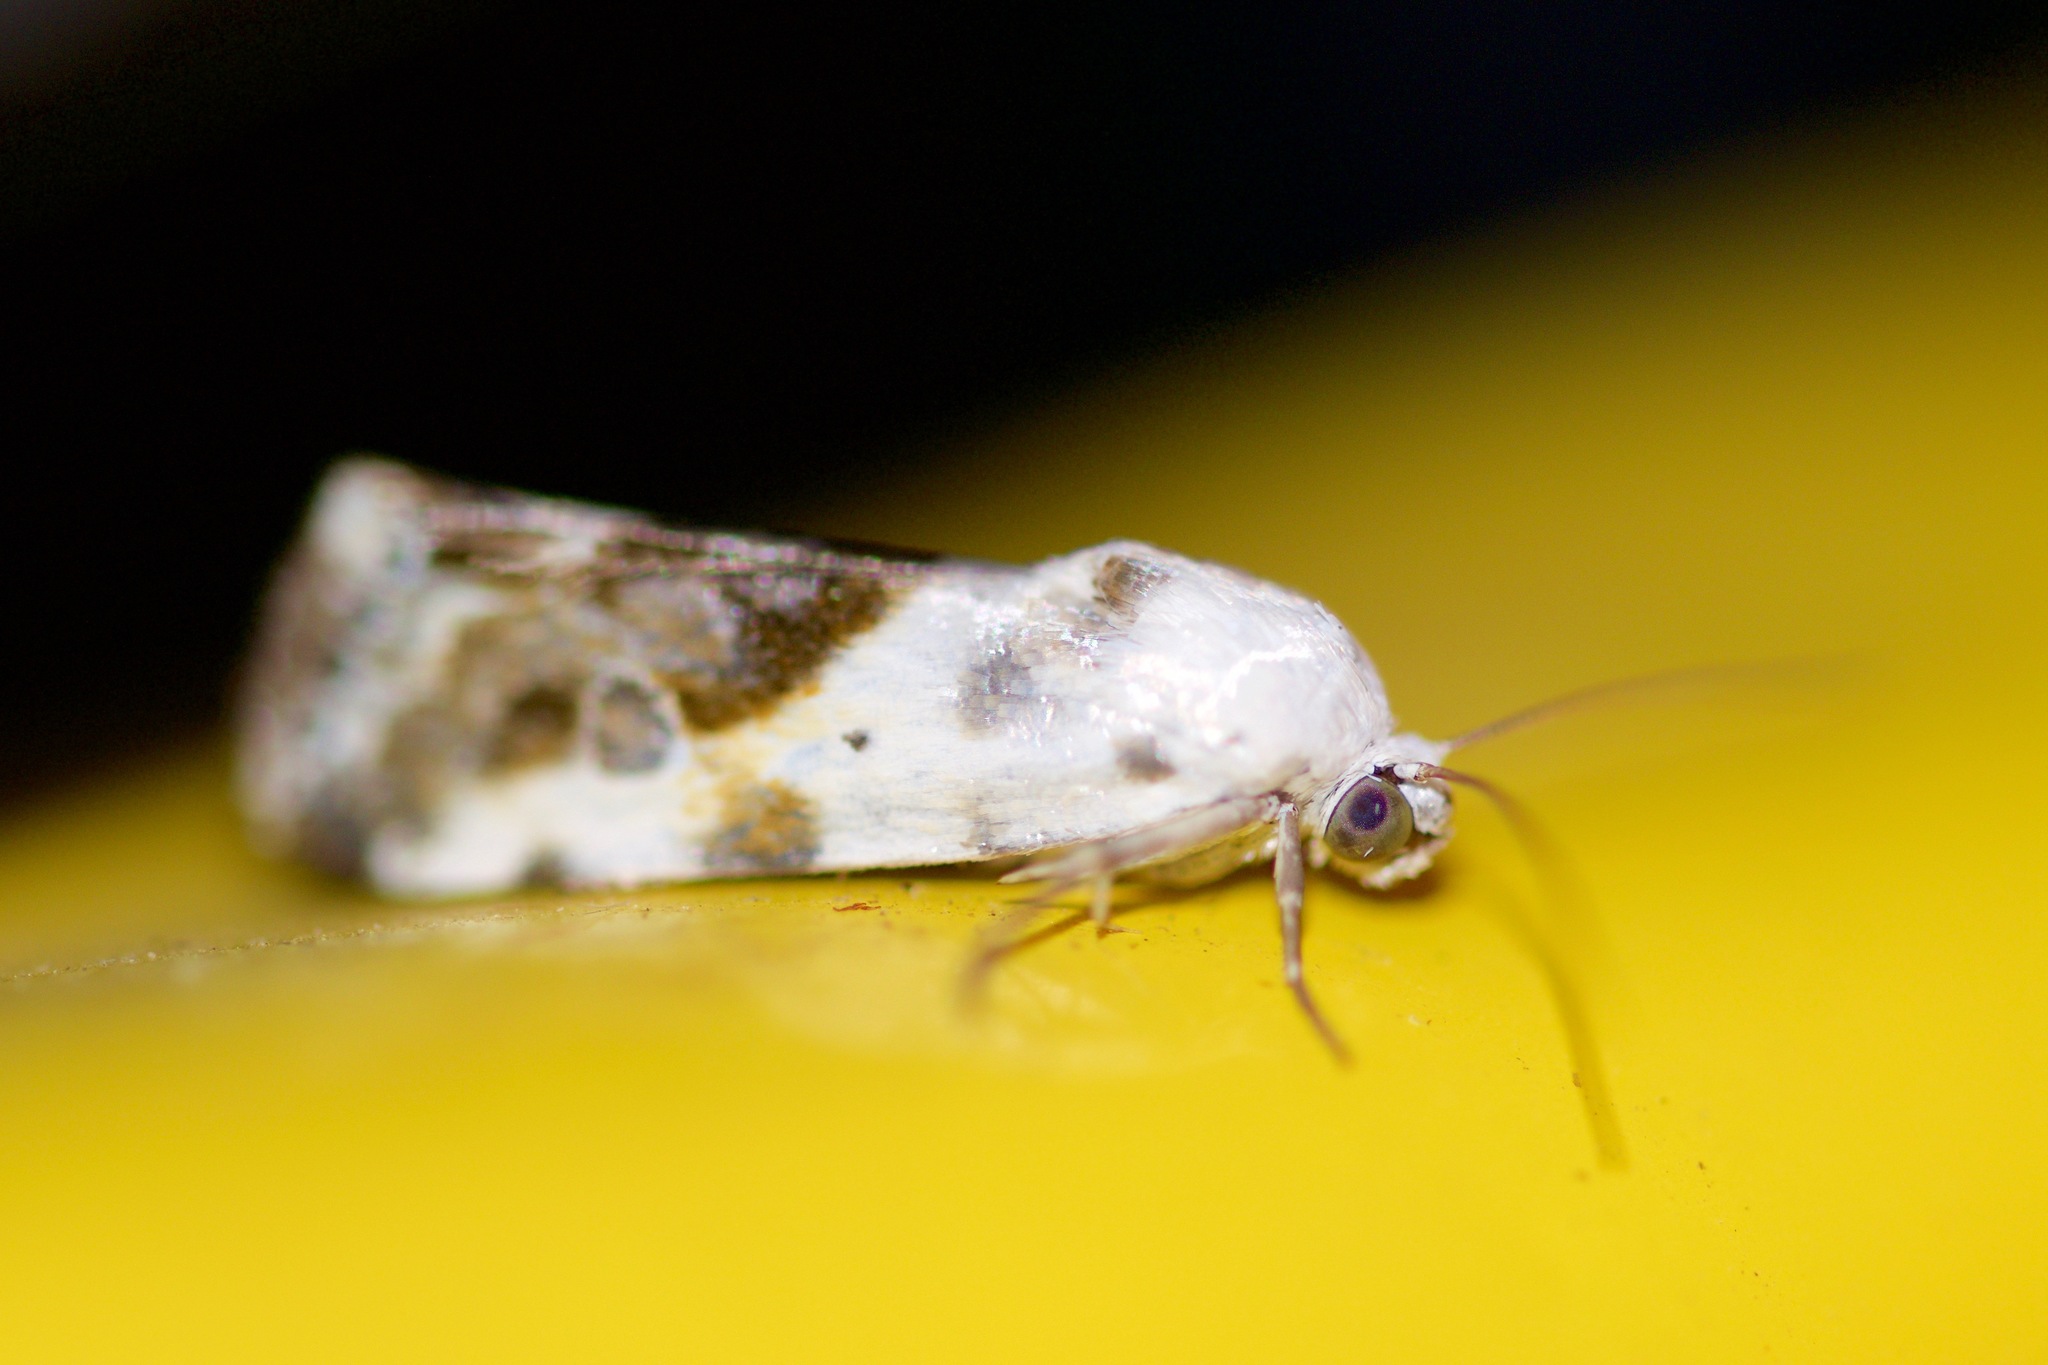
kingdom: Animalia
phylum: Arthropoda
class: Insecta
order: Lepidoptera
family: Noctuidae
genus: Acontia
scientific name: Acontia candefacta
